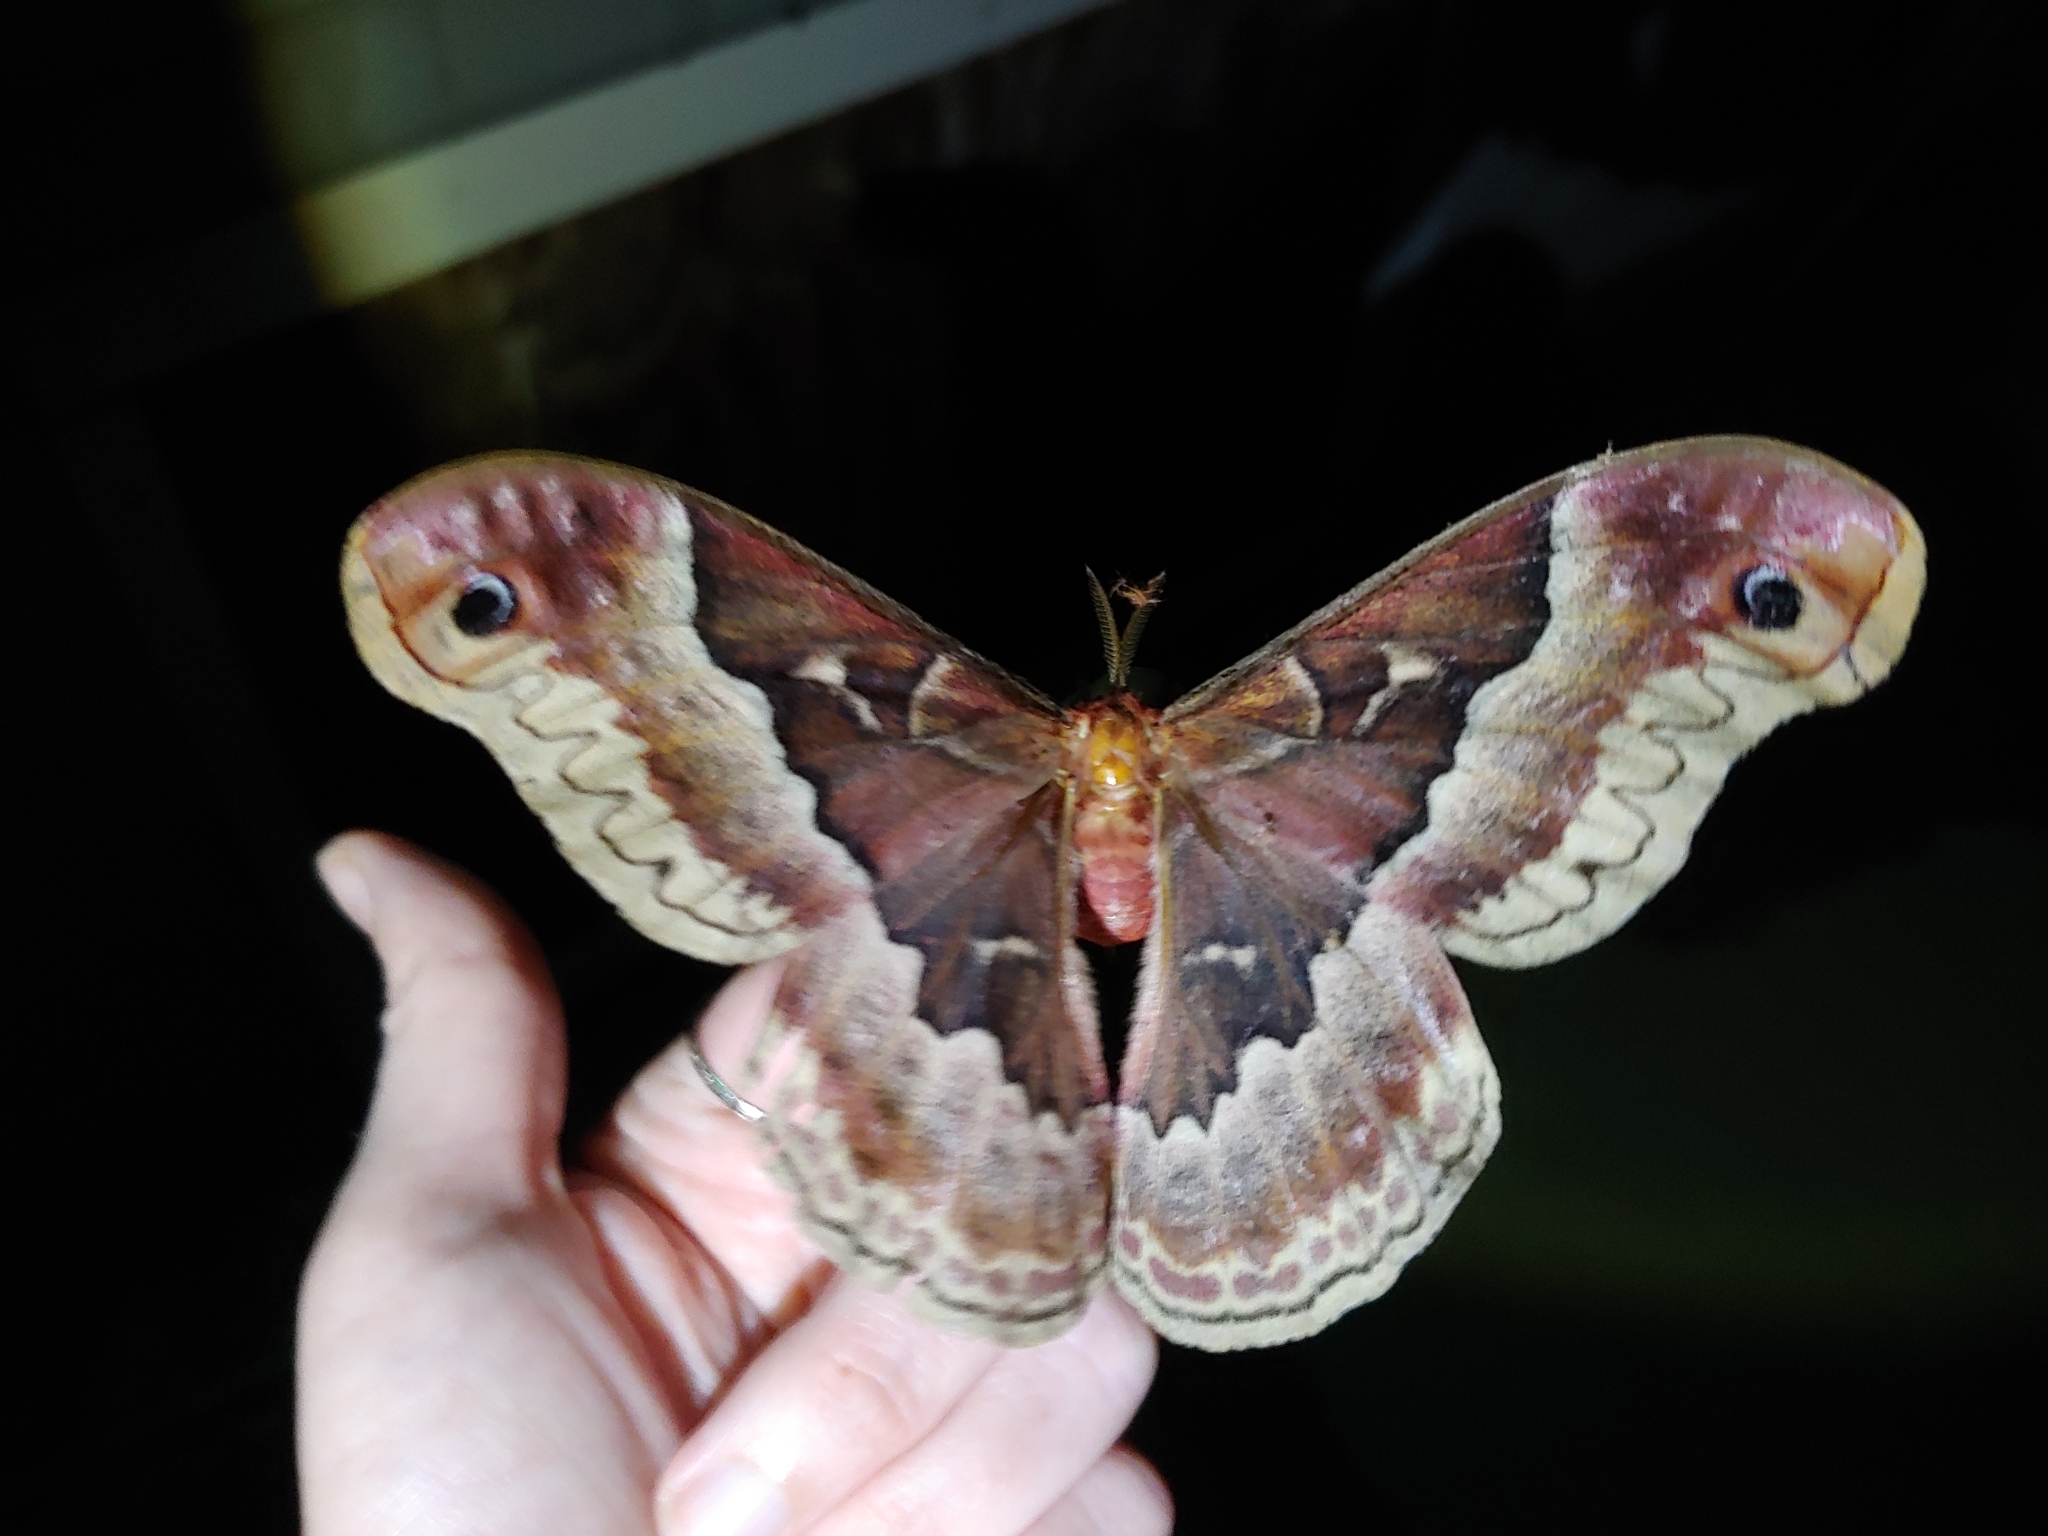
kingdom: Animalia
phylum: Arthropoda
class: Insecta
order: Lepidoptera
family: Saturniidae
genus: Callosamia
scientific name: Callosamia promethea
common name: Promethea silkmoth
